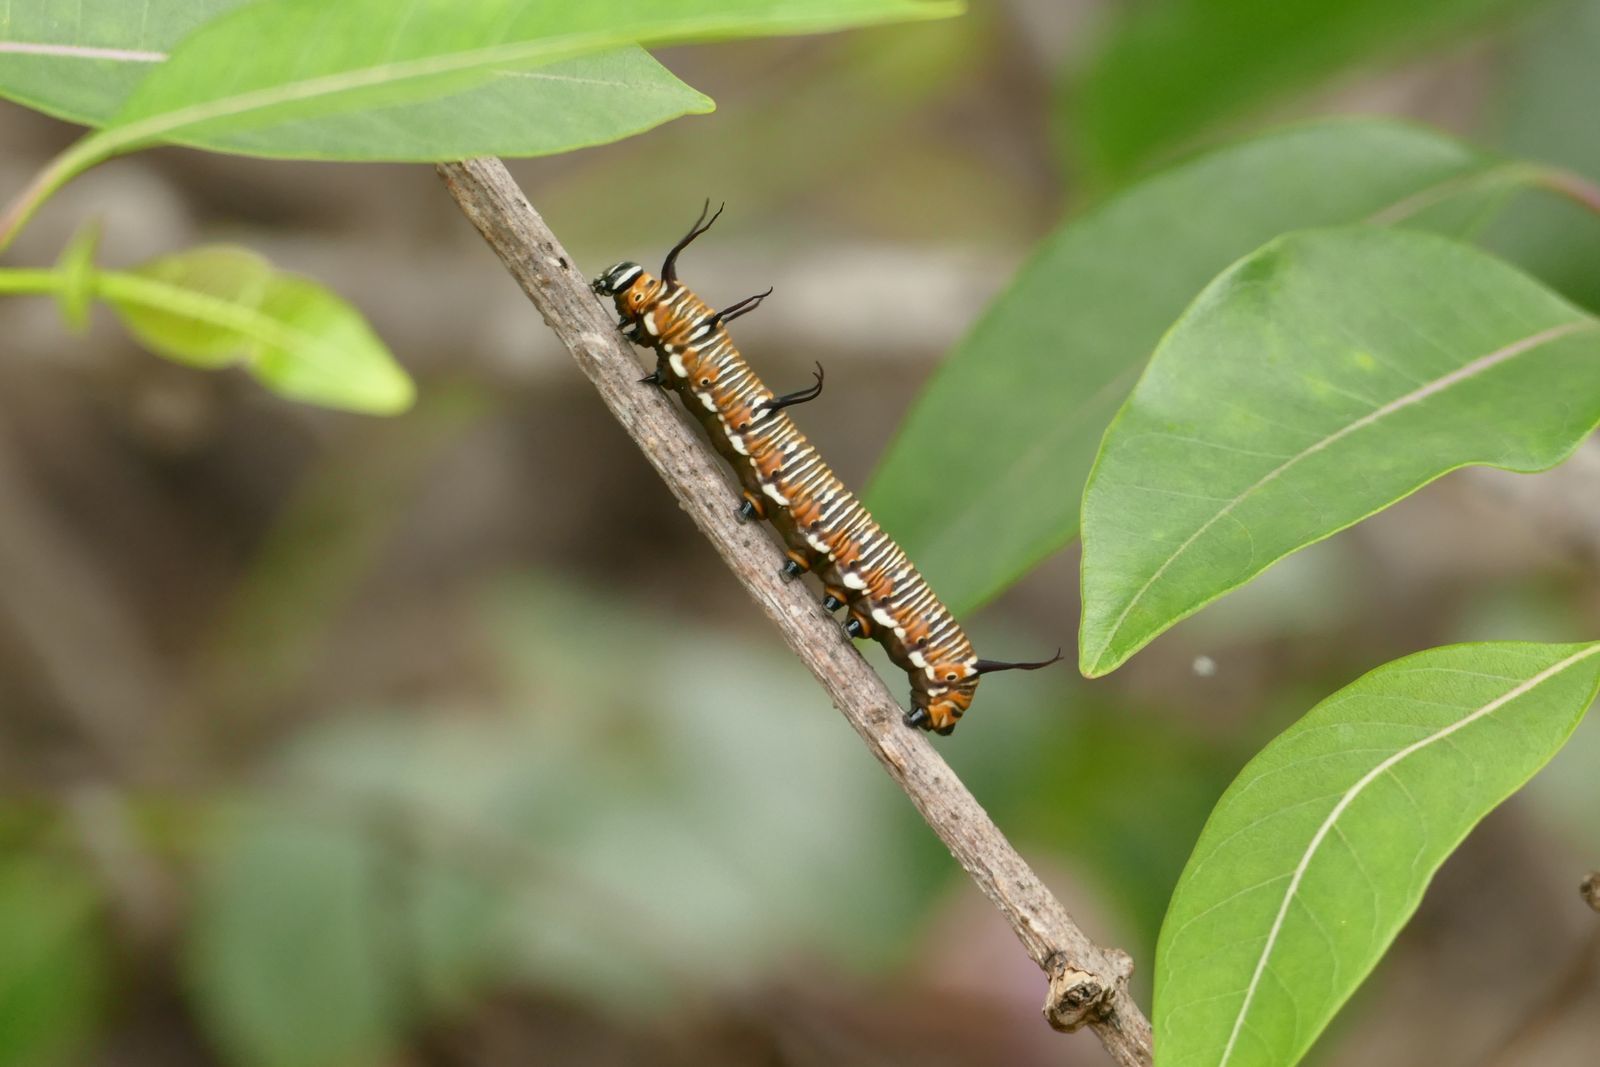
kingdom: Animalia
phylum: Arthropoda
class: Insecta
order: Lepidoptera
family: Nymphalidae
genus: Euploea
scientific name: Euploea core
